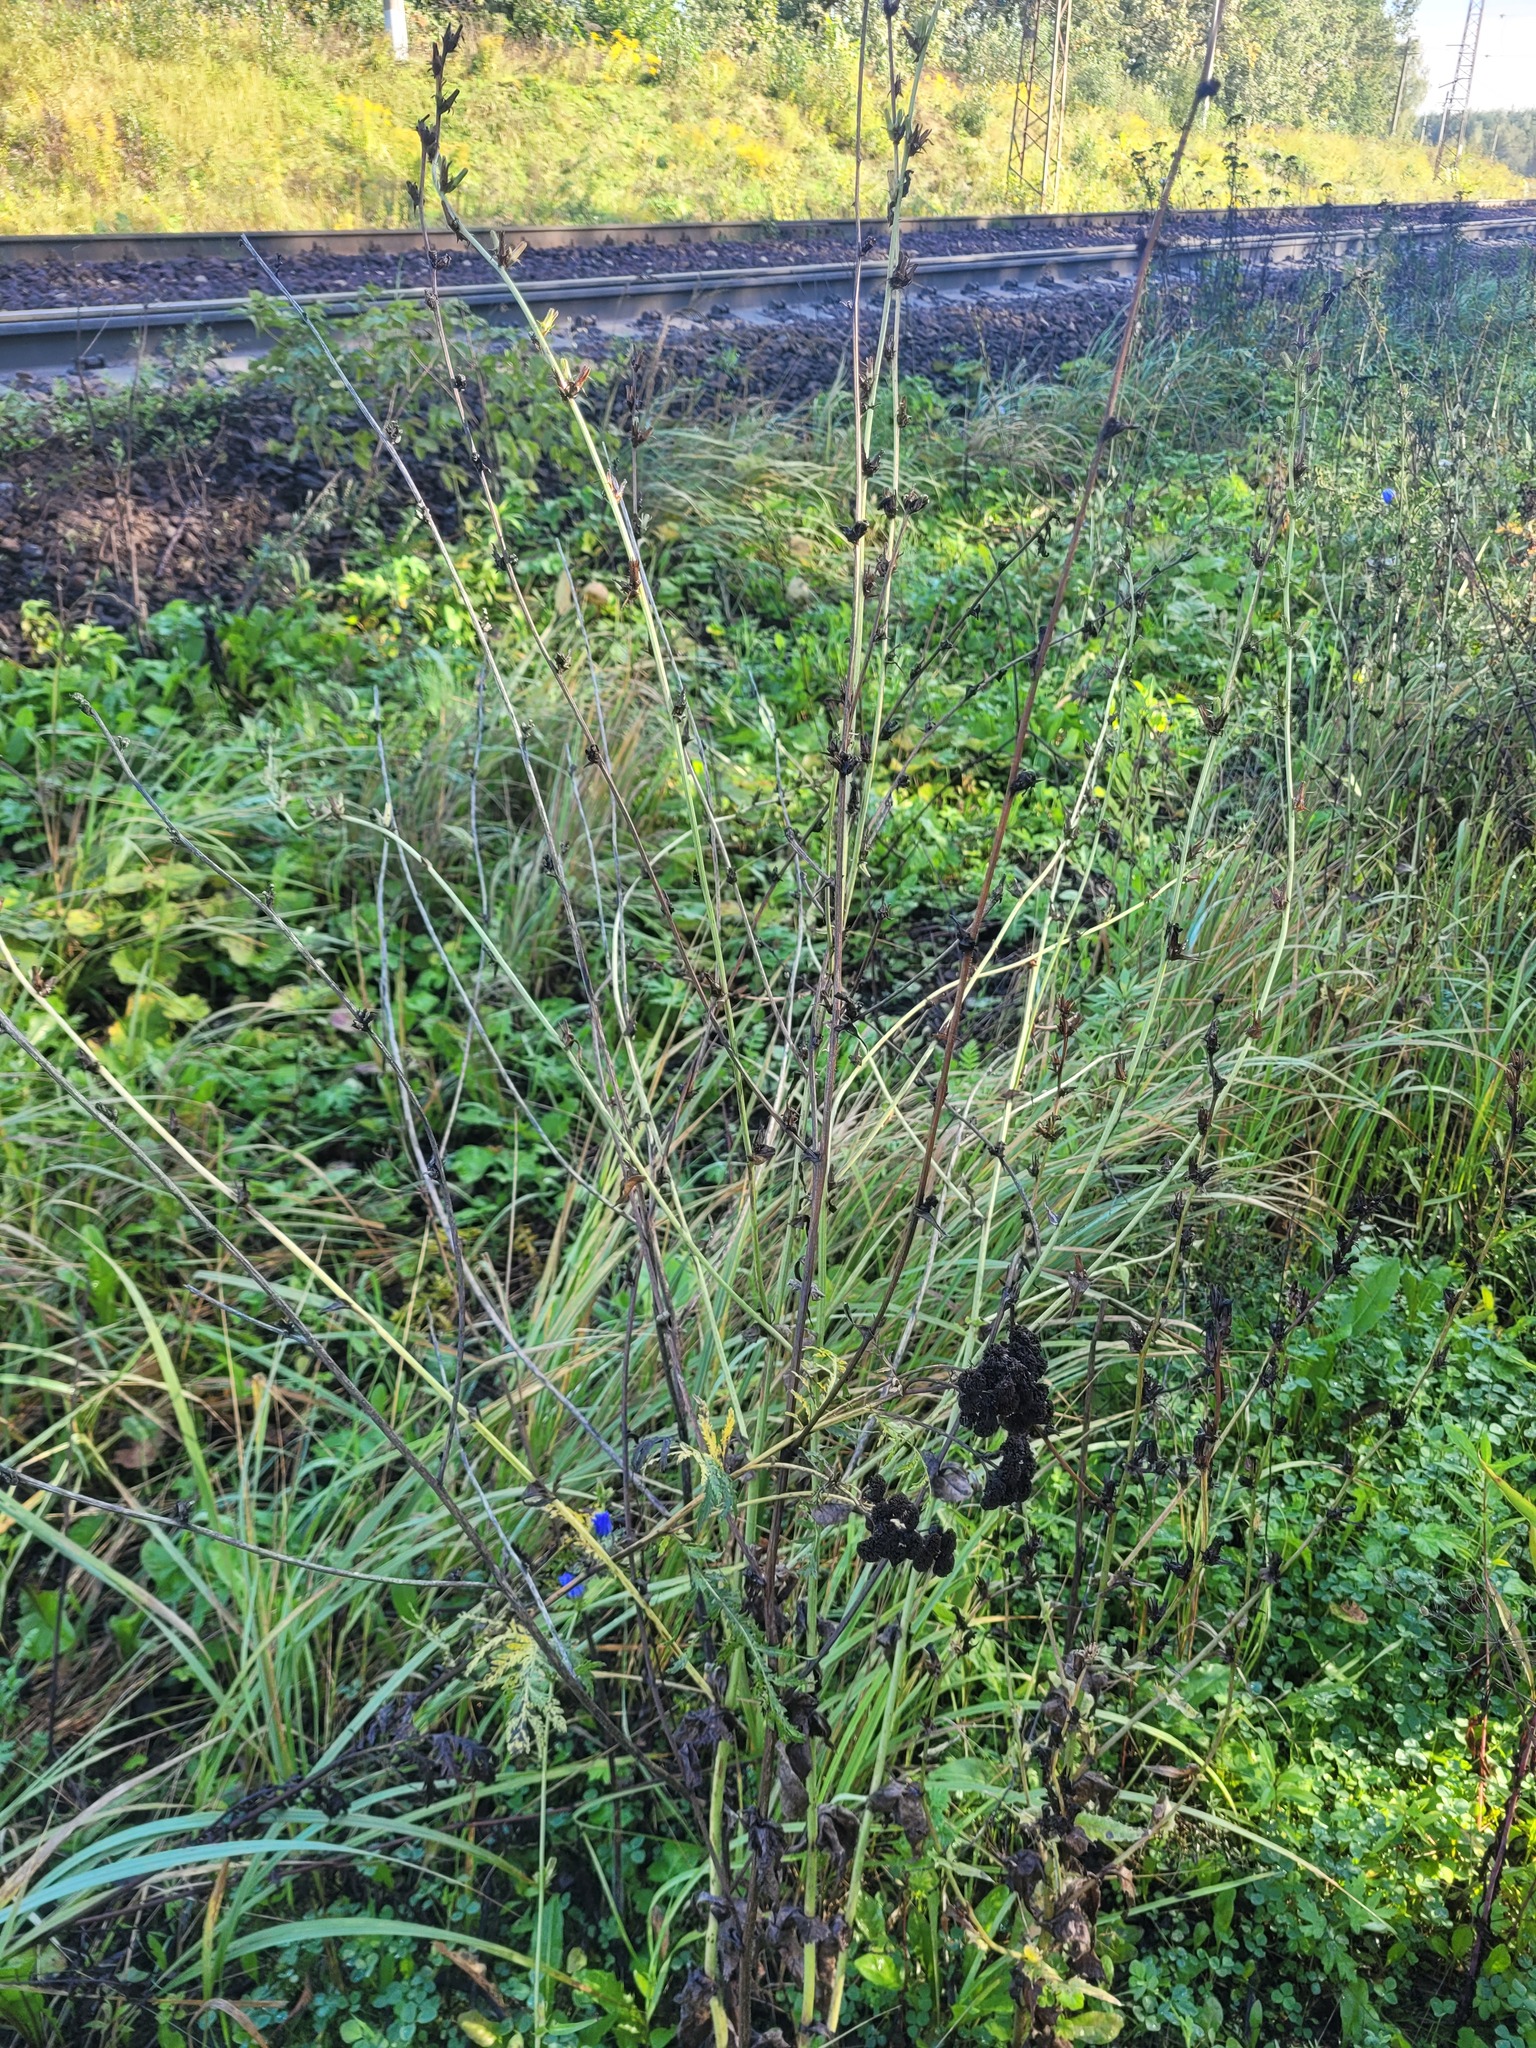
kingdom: Plantae
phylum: Tracheophyta
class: Magnoliopsida
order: Asterales
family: Asteraceae
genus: Cichorium
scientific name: Cichorium intybus
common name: Chicory
